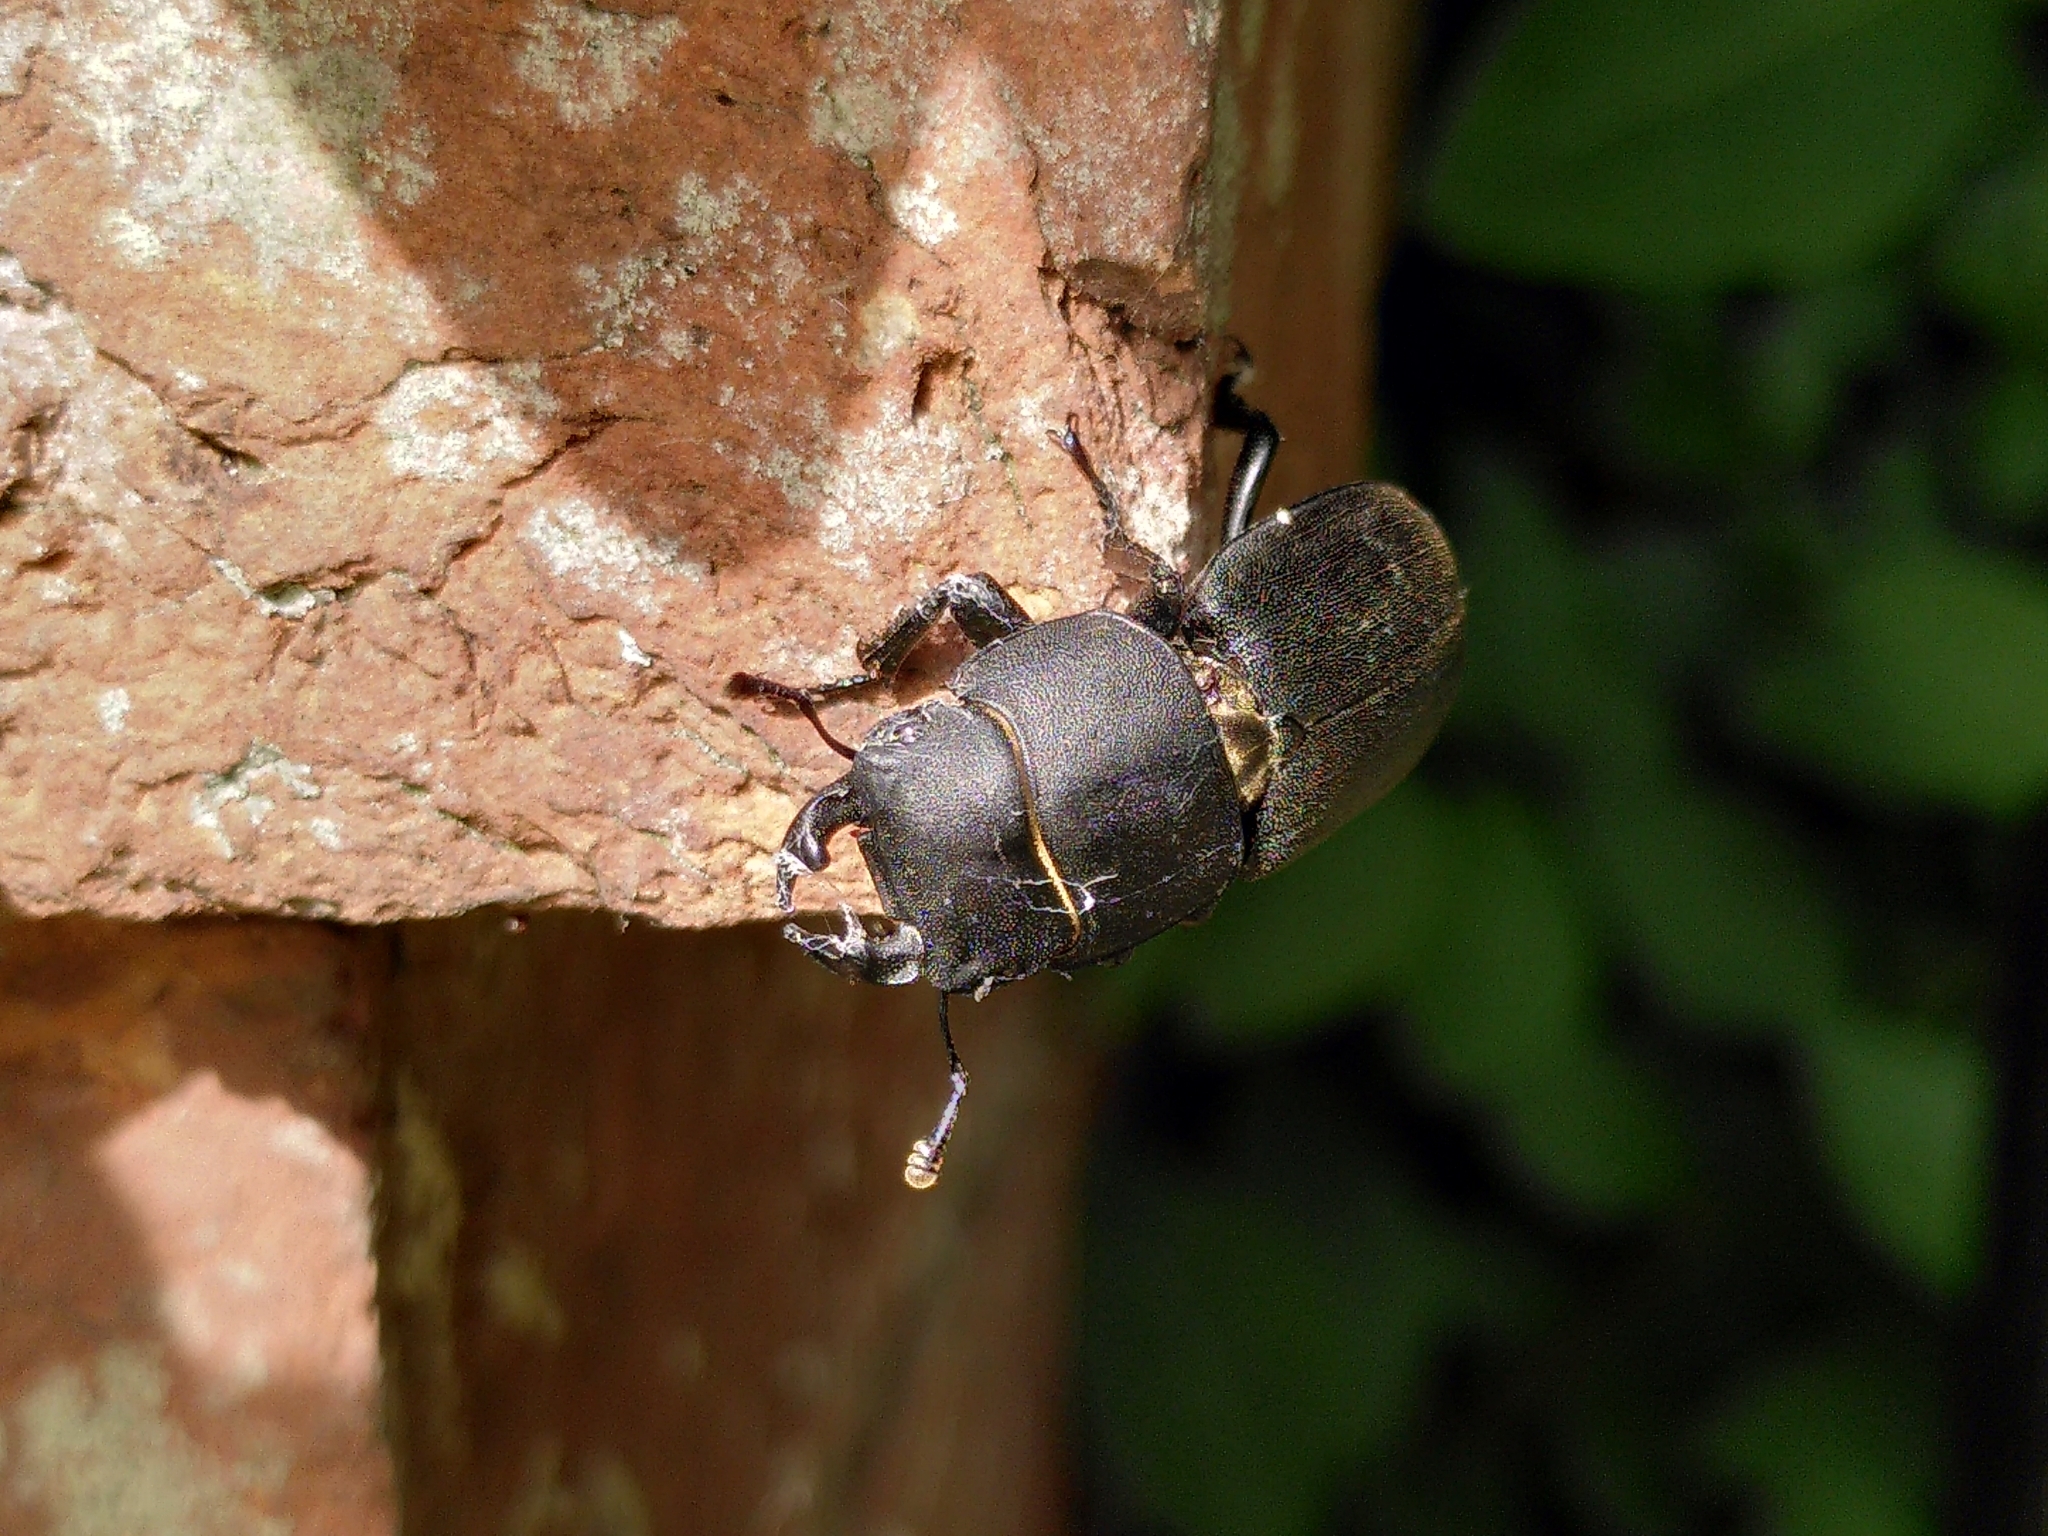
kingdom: Animalia
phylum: Arthropoda
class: Insecta
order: Coleoptera
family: Lucanidae
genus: Dorcus
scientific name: Dorcus parallelipipedus
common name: Lesser stag beetle
